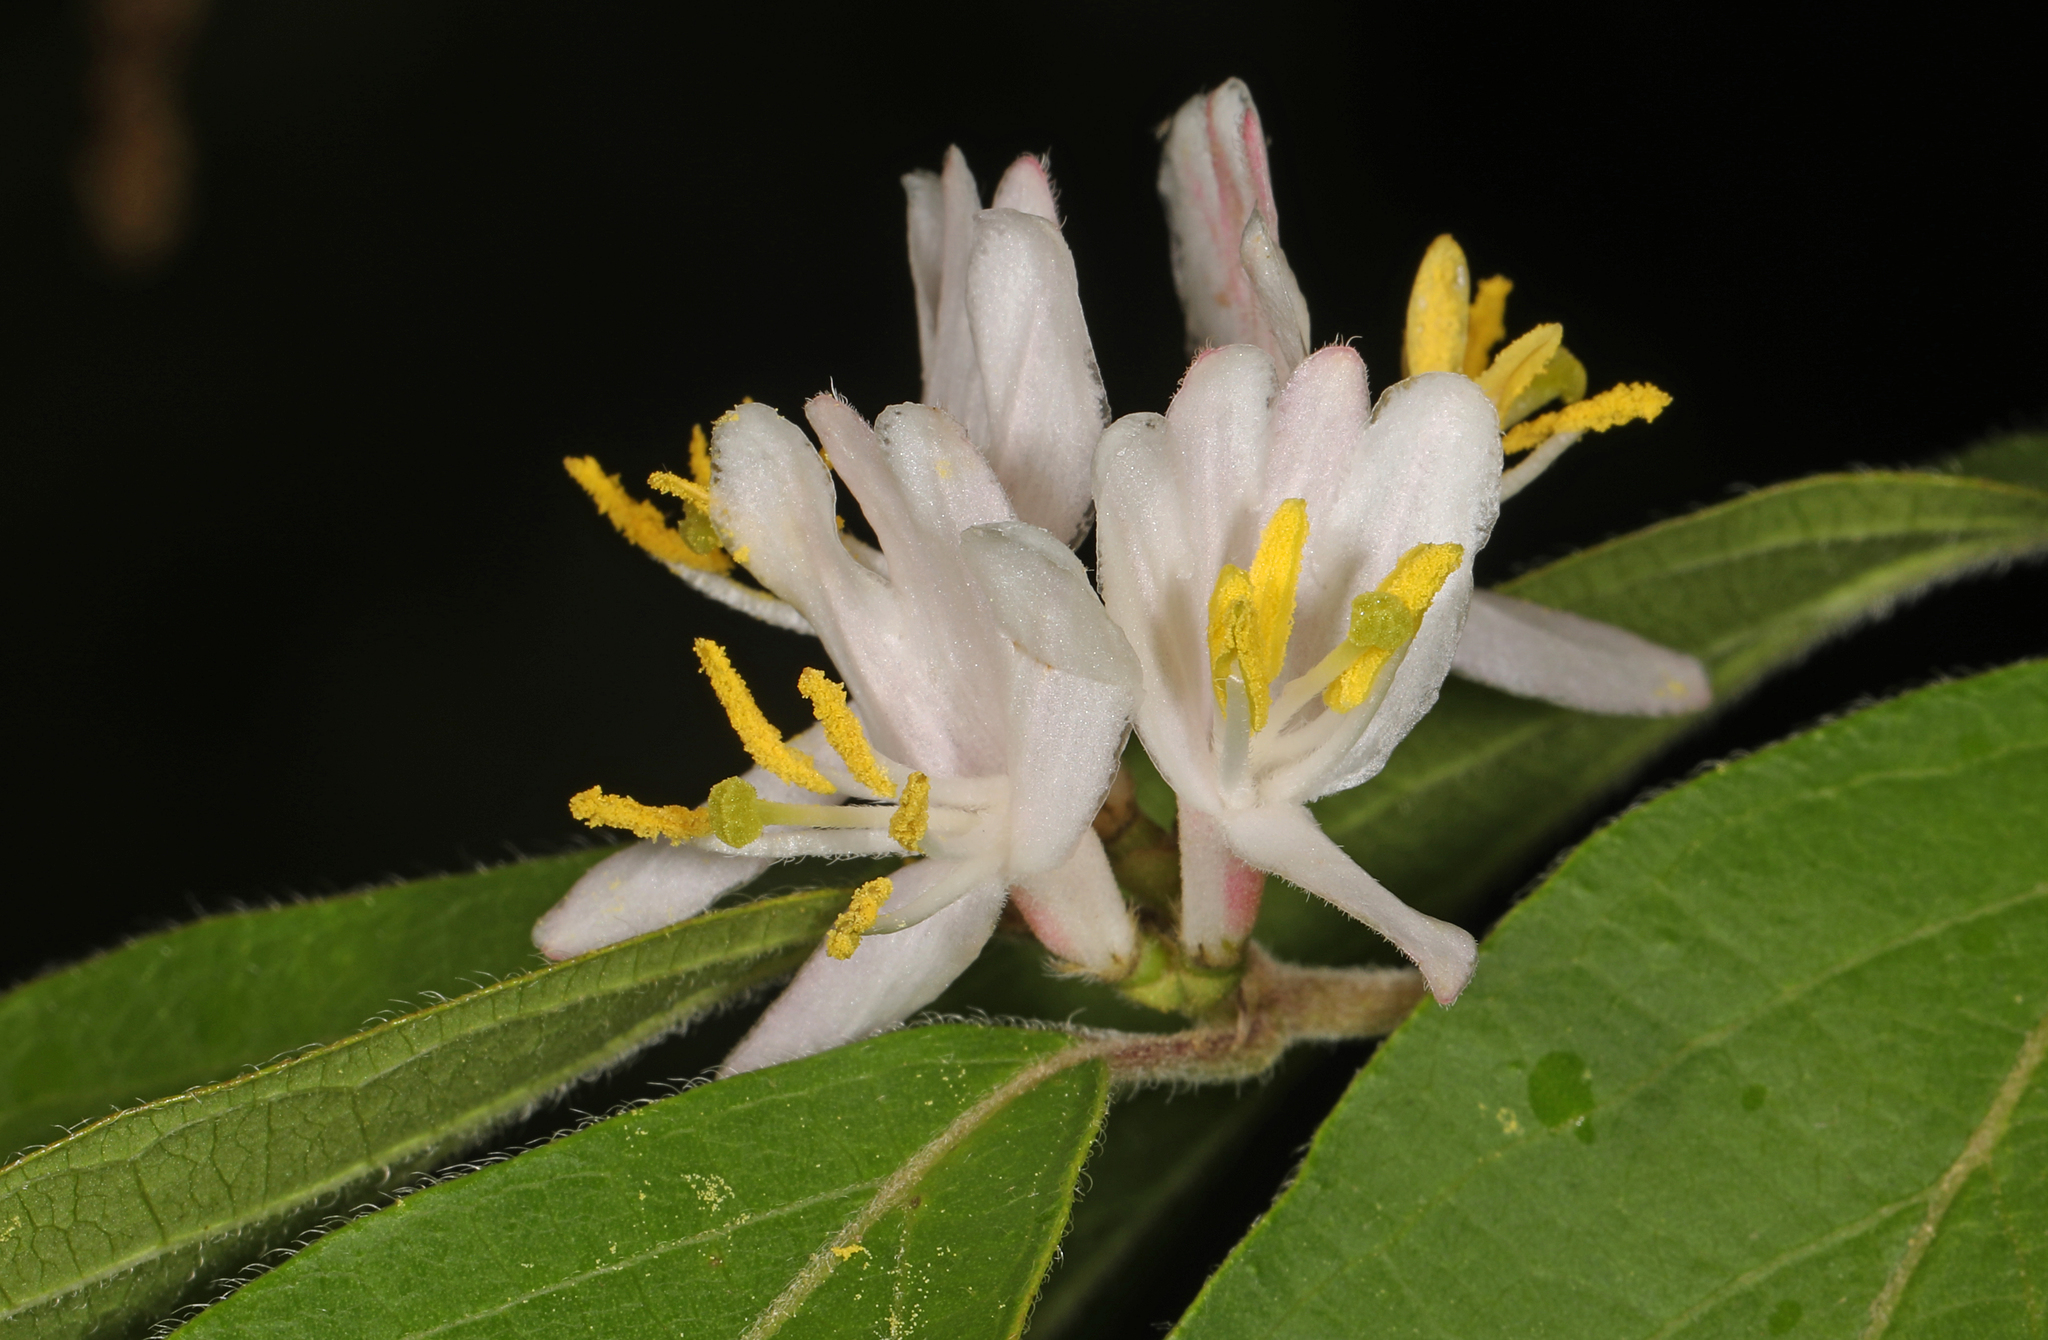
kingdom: Plantae
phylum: Tracheophyta
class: Magnoliopsida
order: Dipsacales
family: Caprifoliaceae
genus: Lonicera
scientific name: Lonicera maackii
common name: Amur honeysuckle
